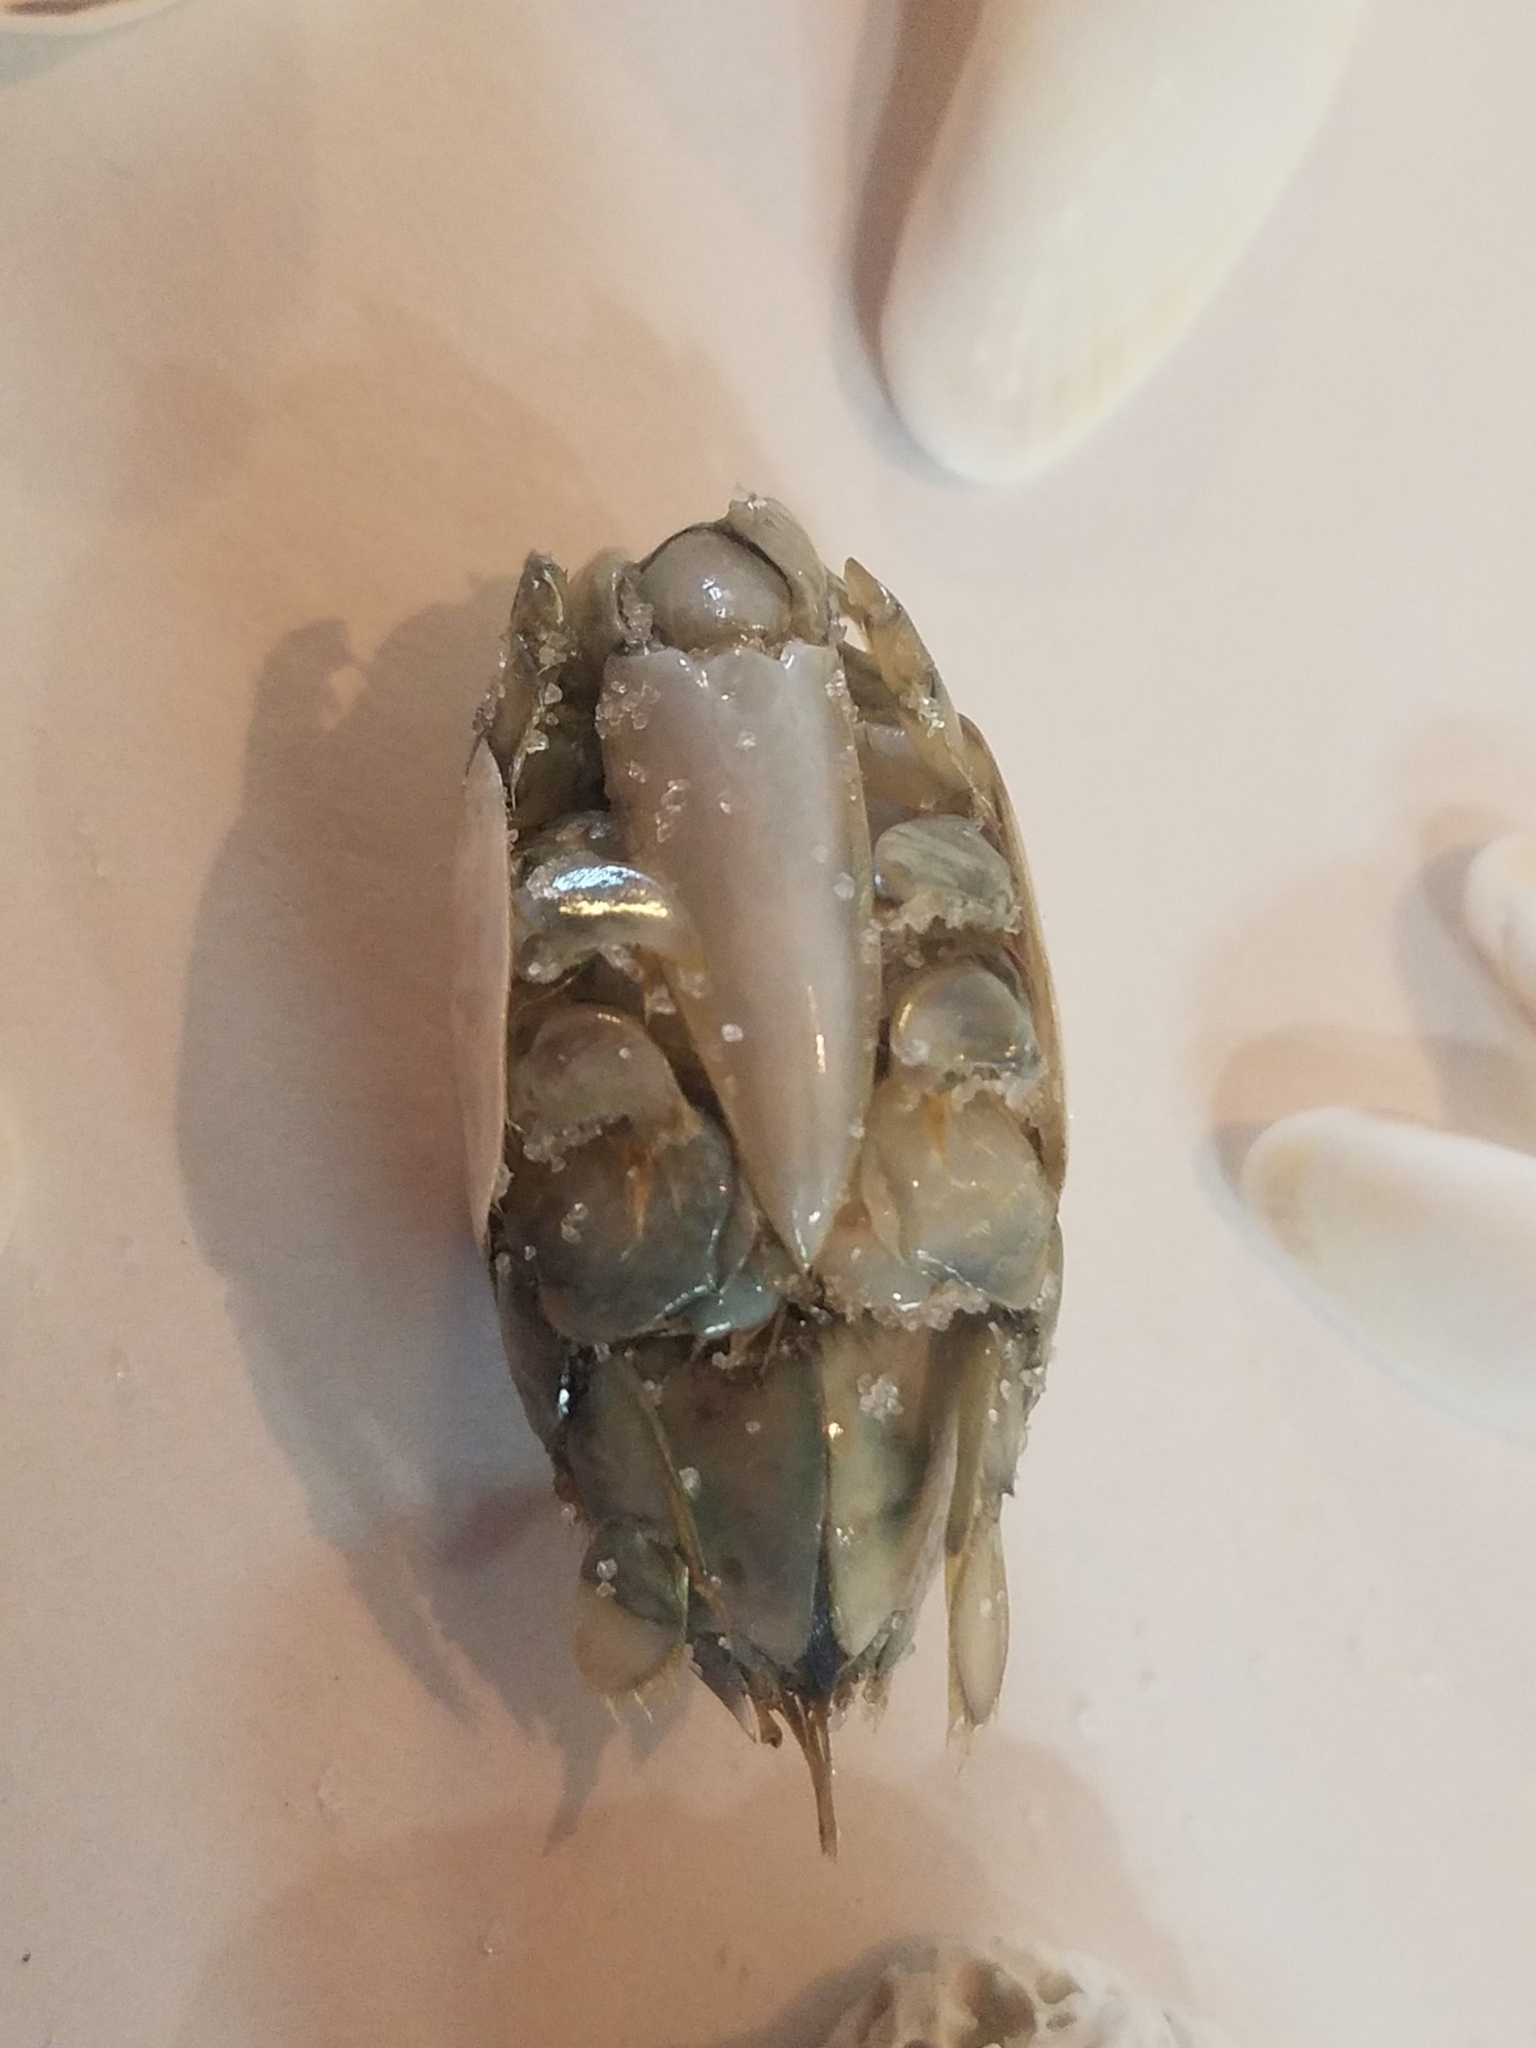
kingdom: Animalia
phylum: Arthropoda
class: Malacostraca
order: Decapoda
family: Hippidae
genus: Emerita
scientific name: Emerita talpoida
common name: Atlantic sand crab
